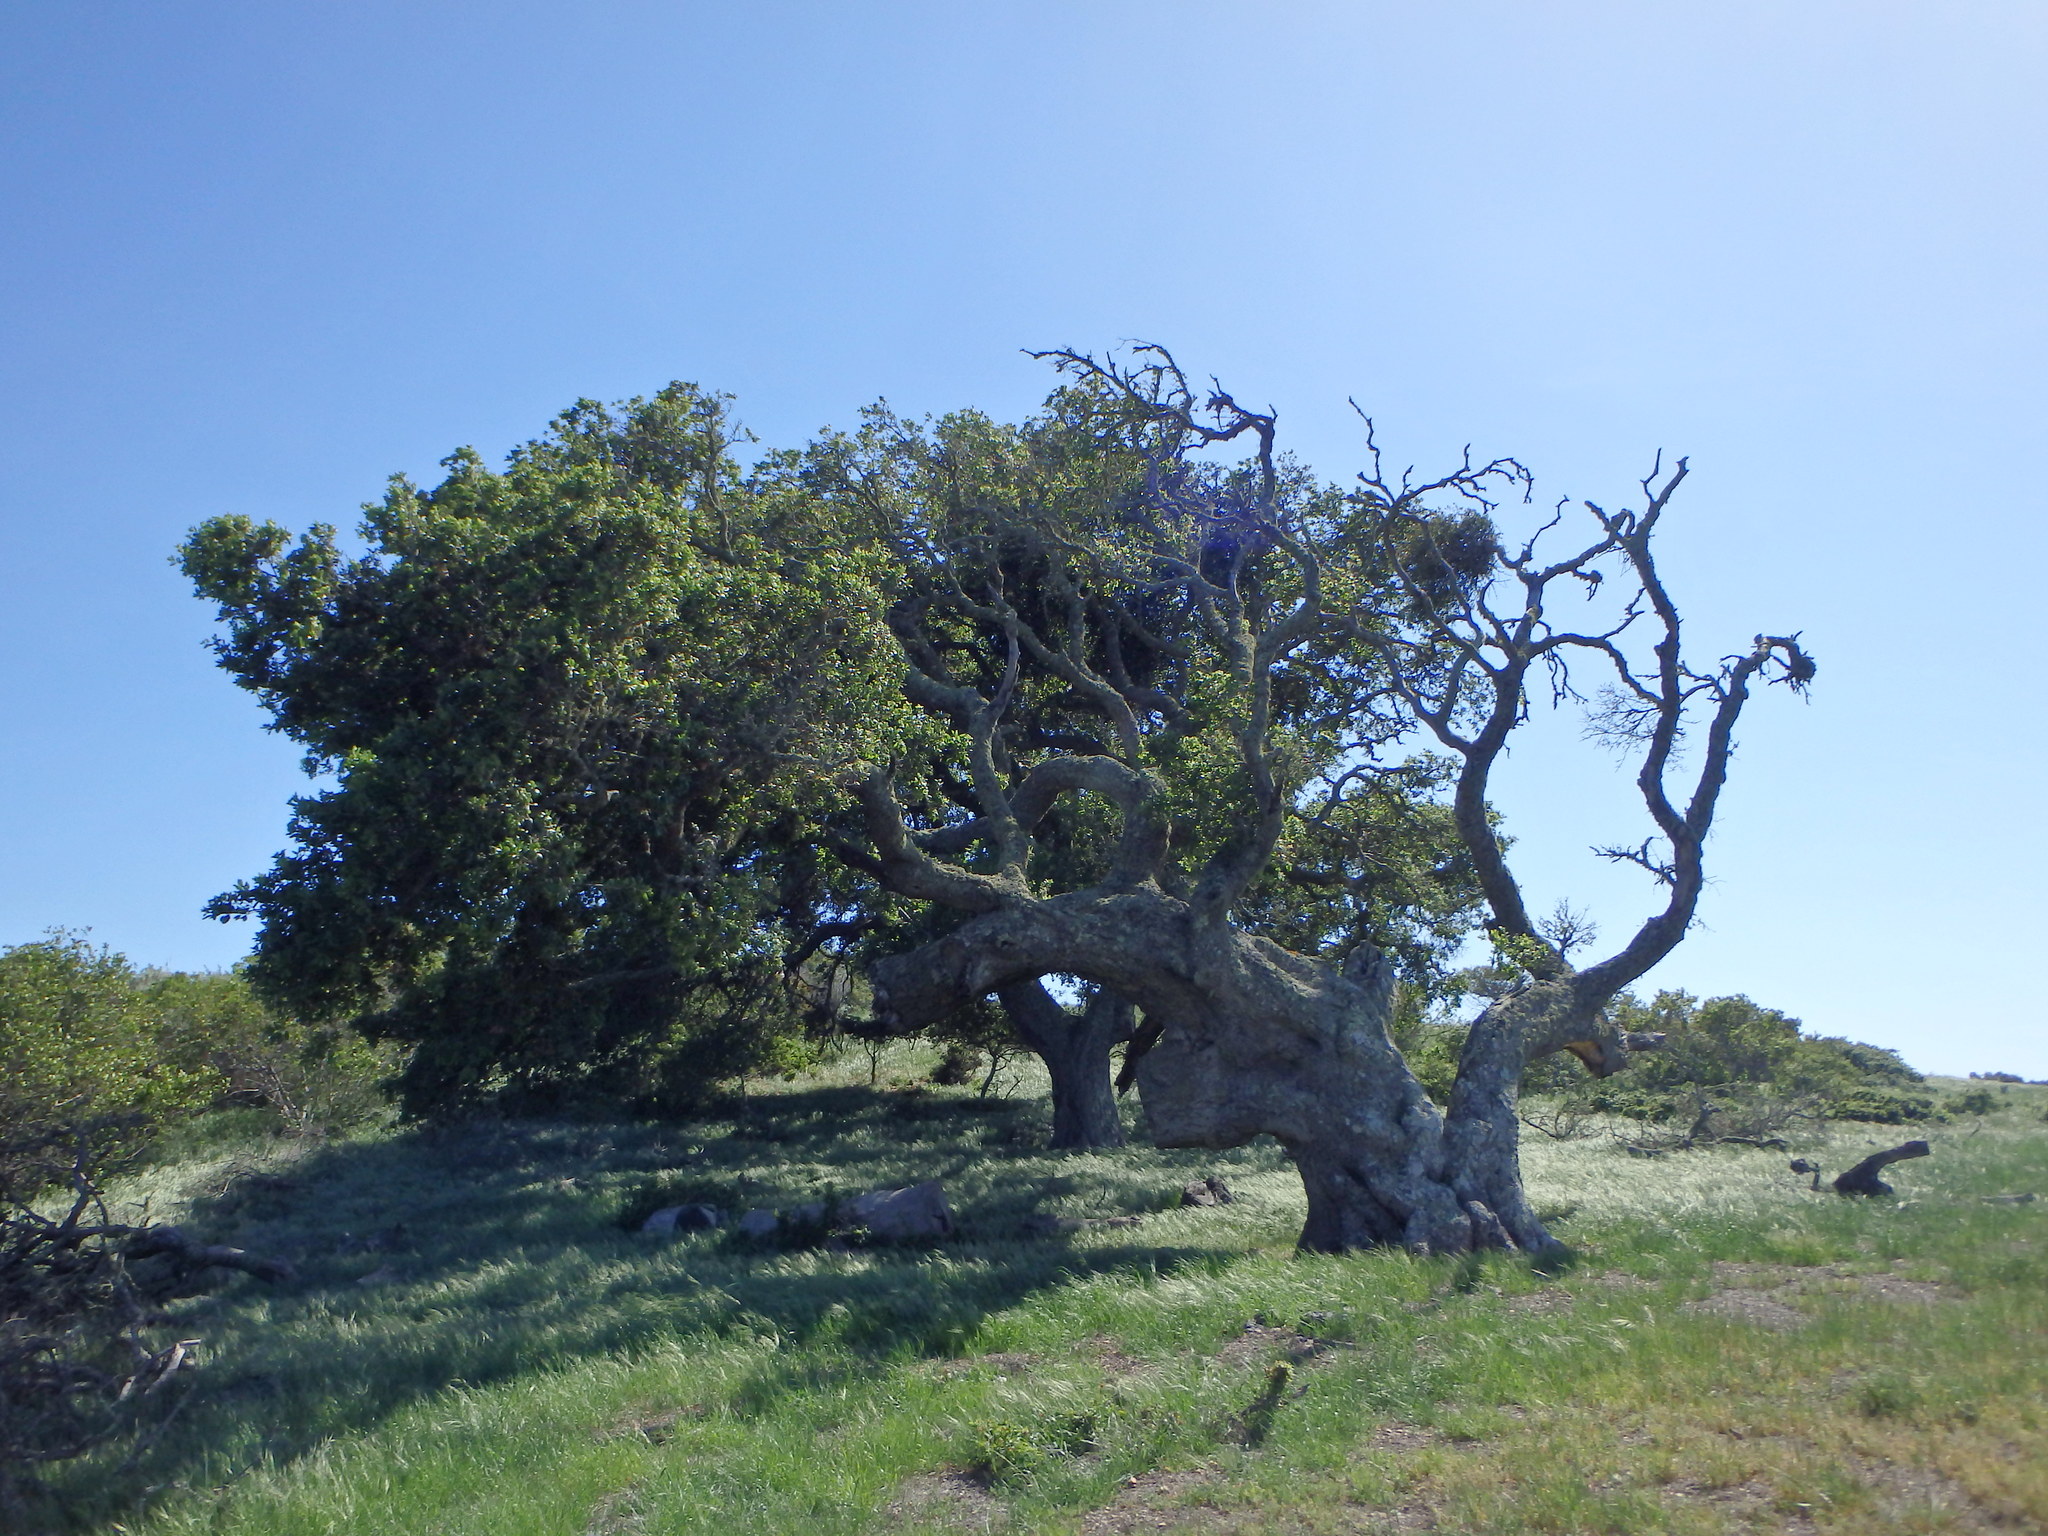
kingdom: Plantae
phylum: Tracheophyta
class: Magnoliopsida
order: Fagales
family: Fagaceae
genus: Quercus
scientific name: Quercus agrifolia
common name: California live oak
